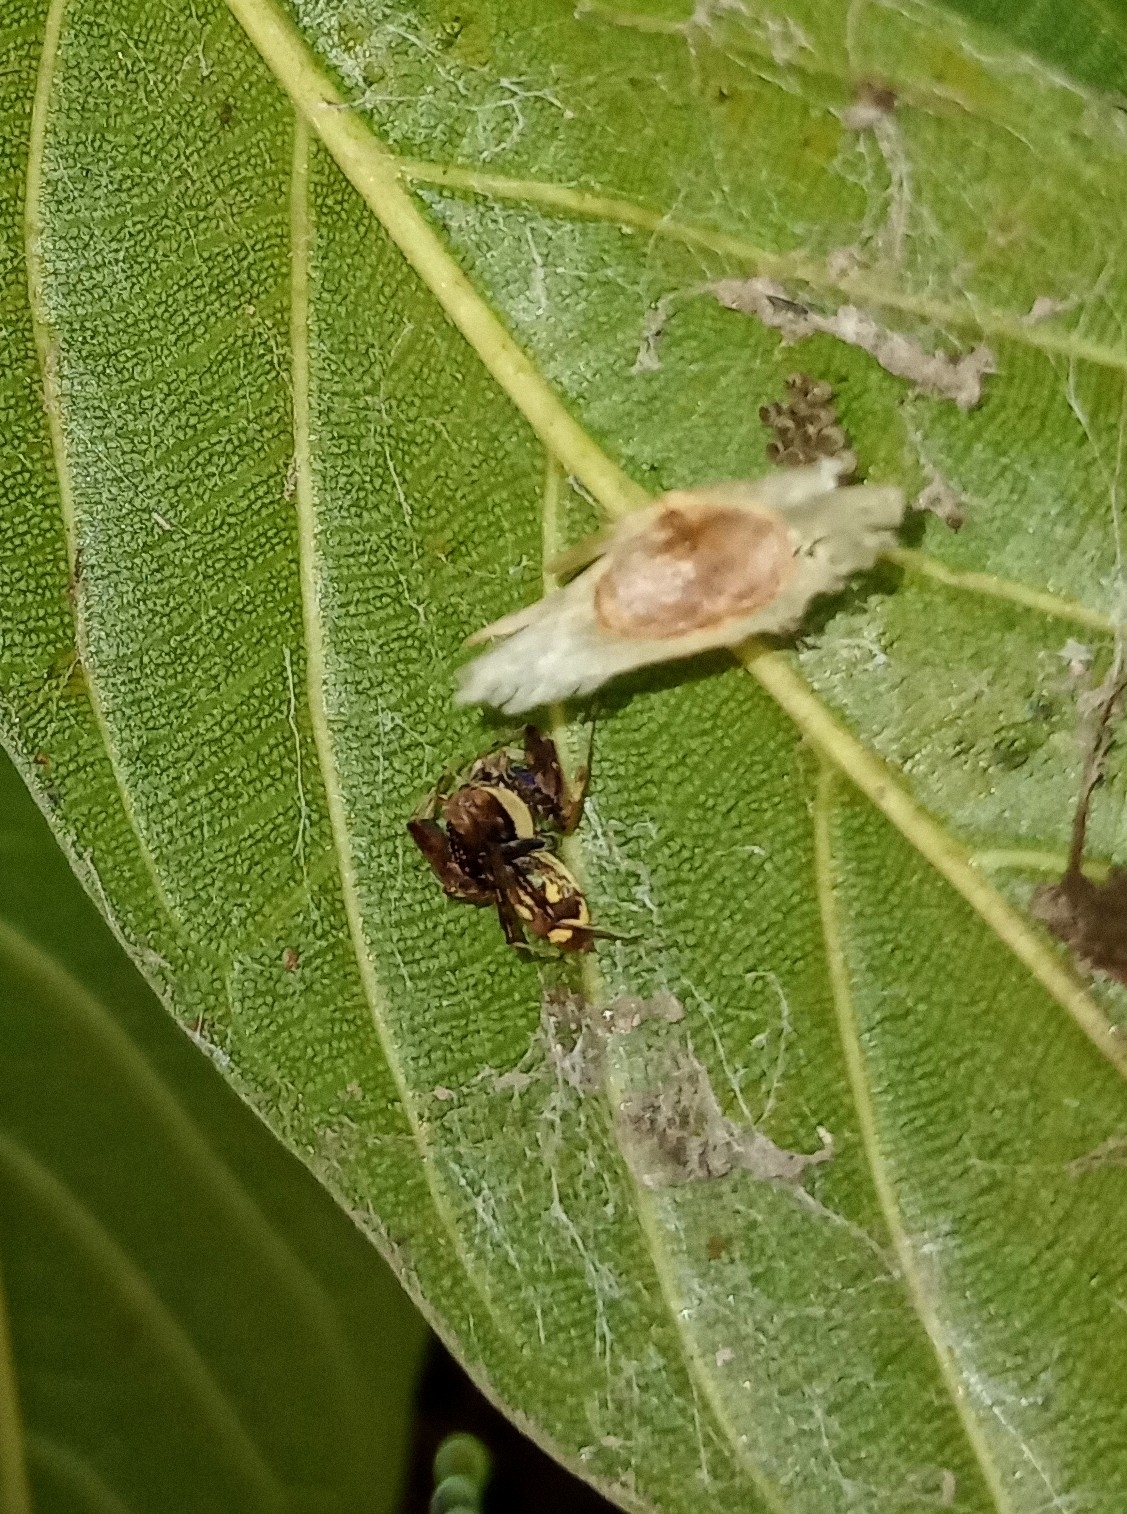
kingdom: Animalia
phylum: Arthropoda
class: Arachnida
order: Araneae
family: Salticidae
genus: Brettus
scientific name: Brettus cingulatus
